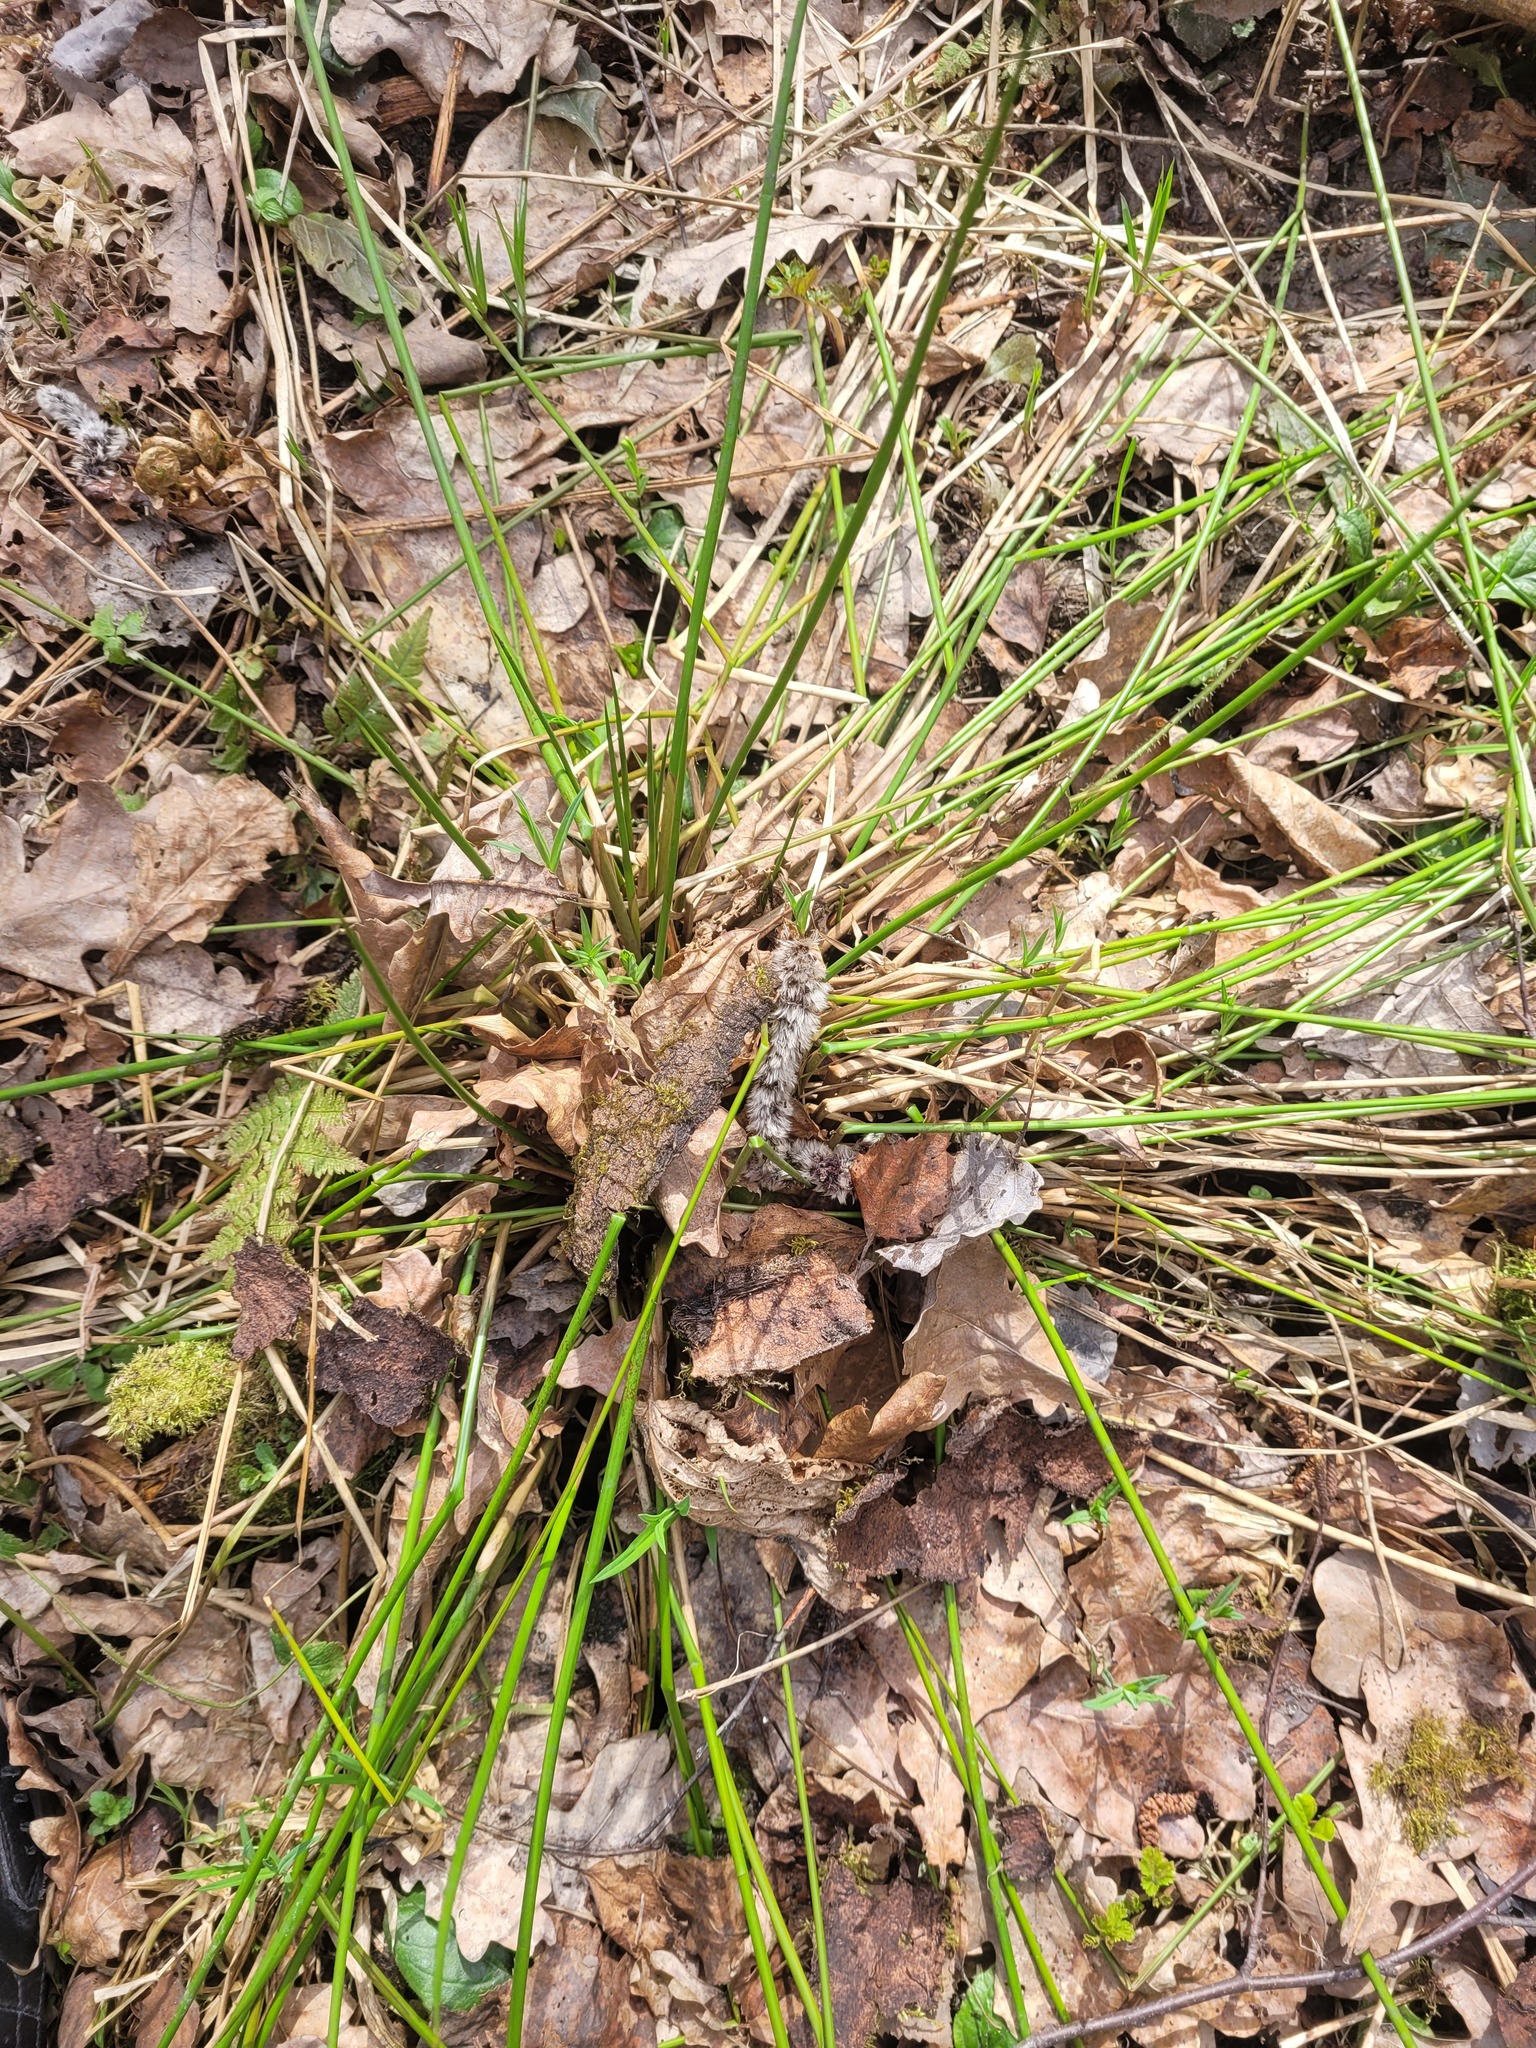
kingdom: Plantae
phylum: Tracheophyta
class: Liliopsida
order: Poales
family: Juncaceae
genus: Juncus
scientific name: Juncus effusus
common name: Soft rush
